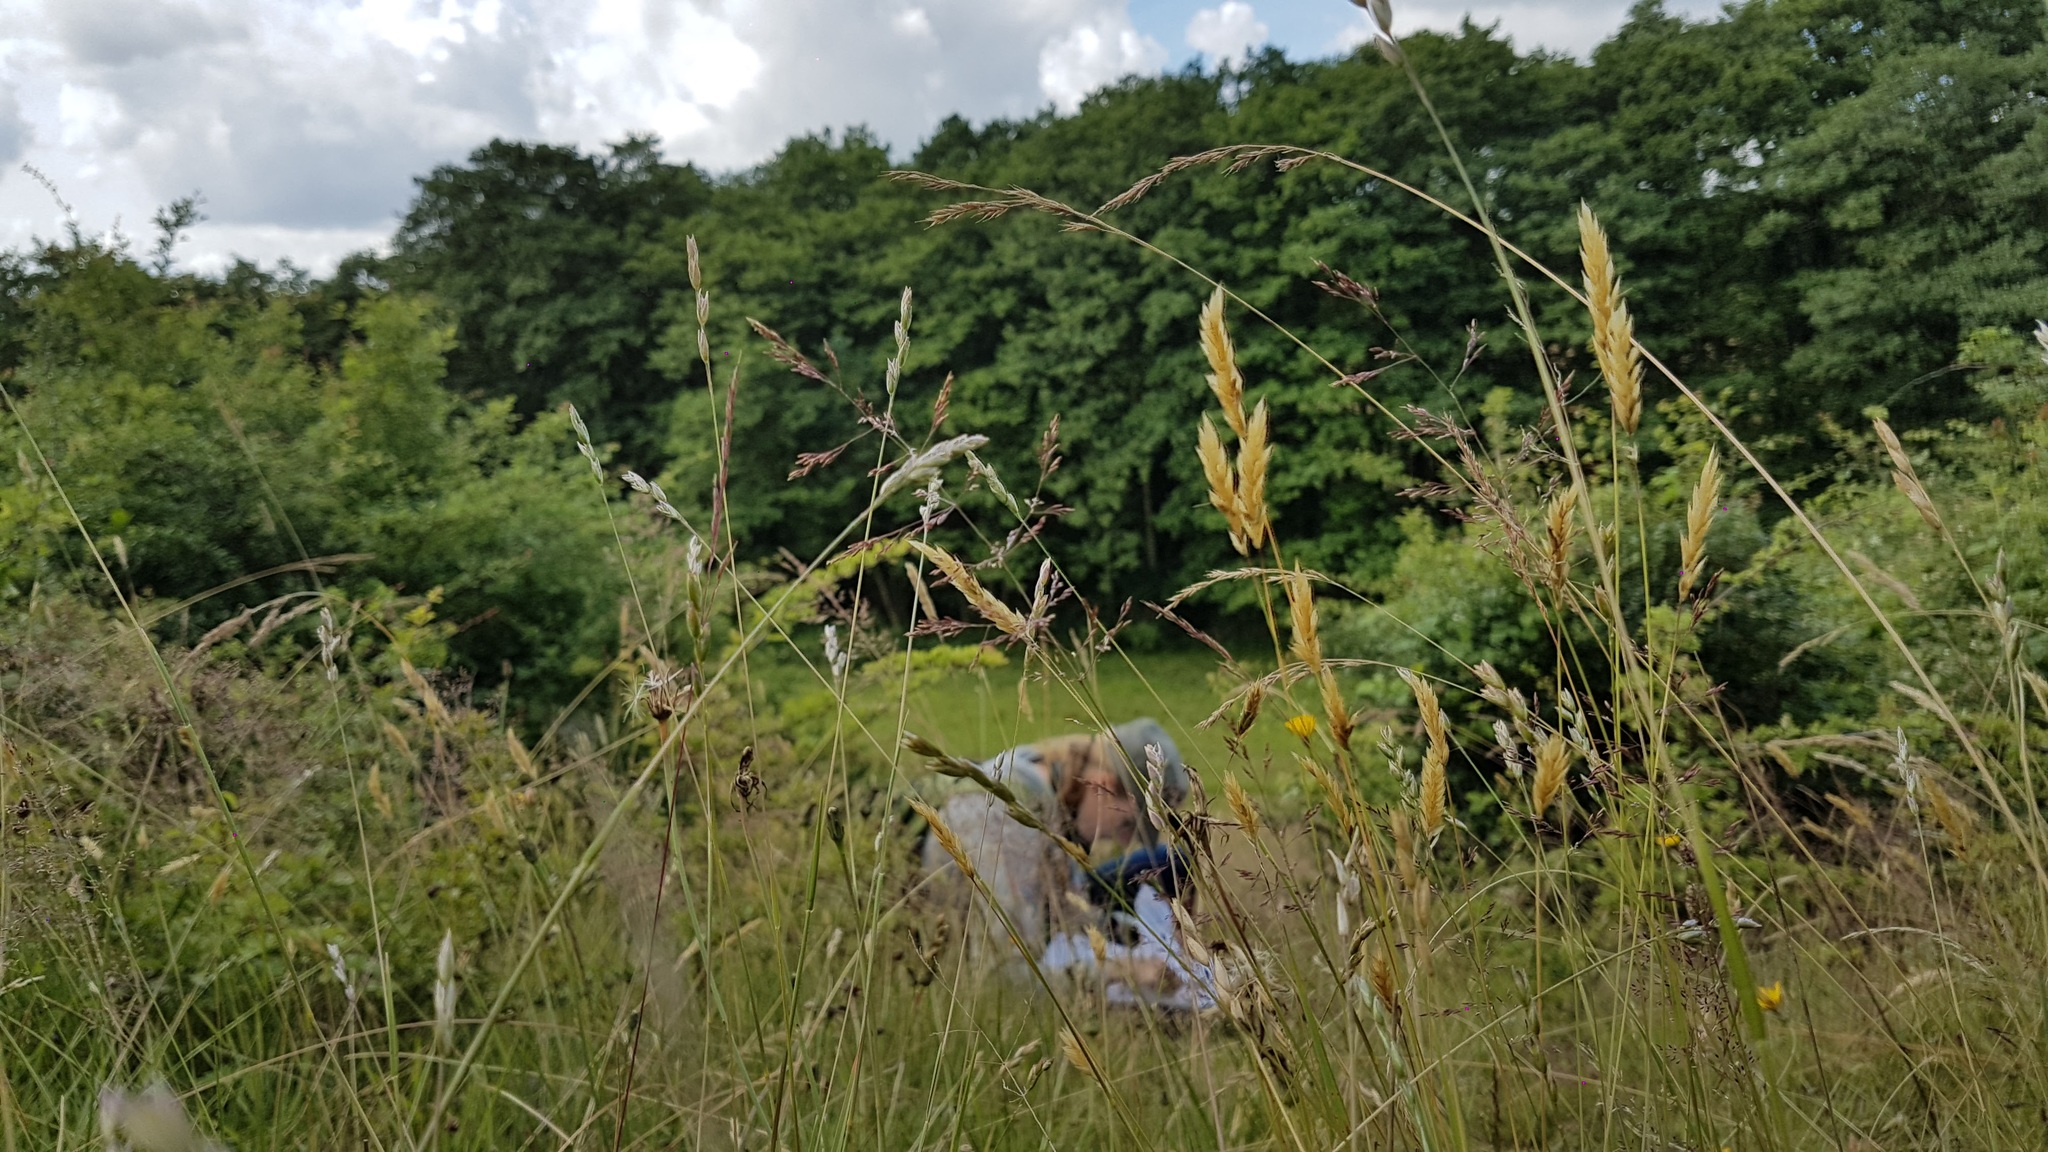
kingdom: Plantae
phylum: Tracheophyta
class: Liliopsida
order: Poales
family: Poaceae
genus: Anthoxanthum
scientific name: Anthoxanthum odoratum
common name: Sweet vernalgrass
